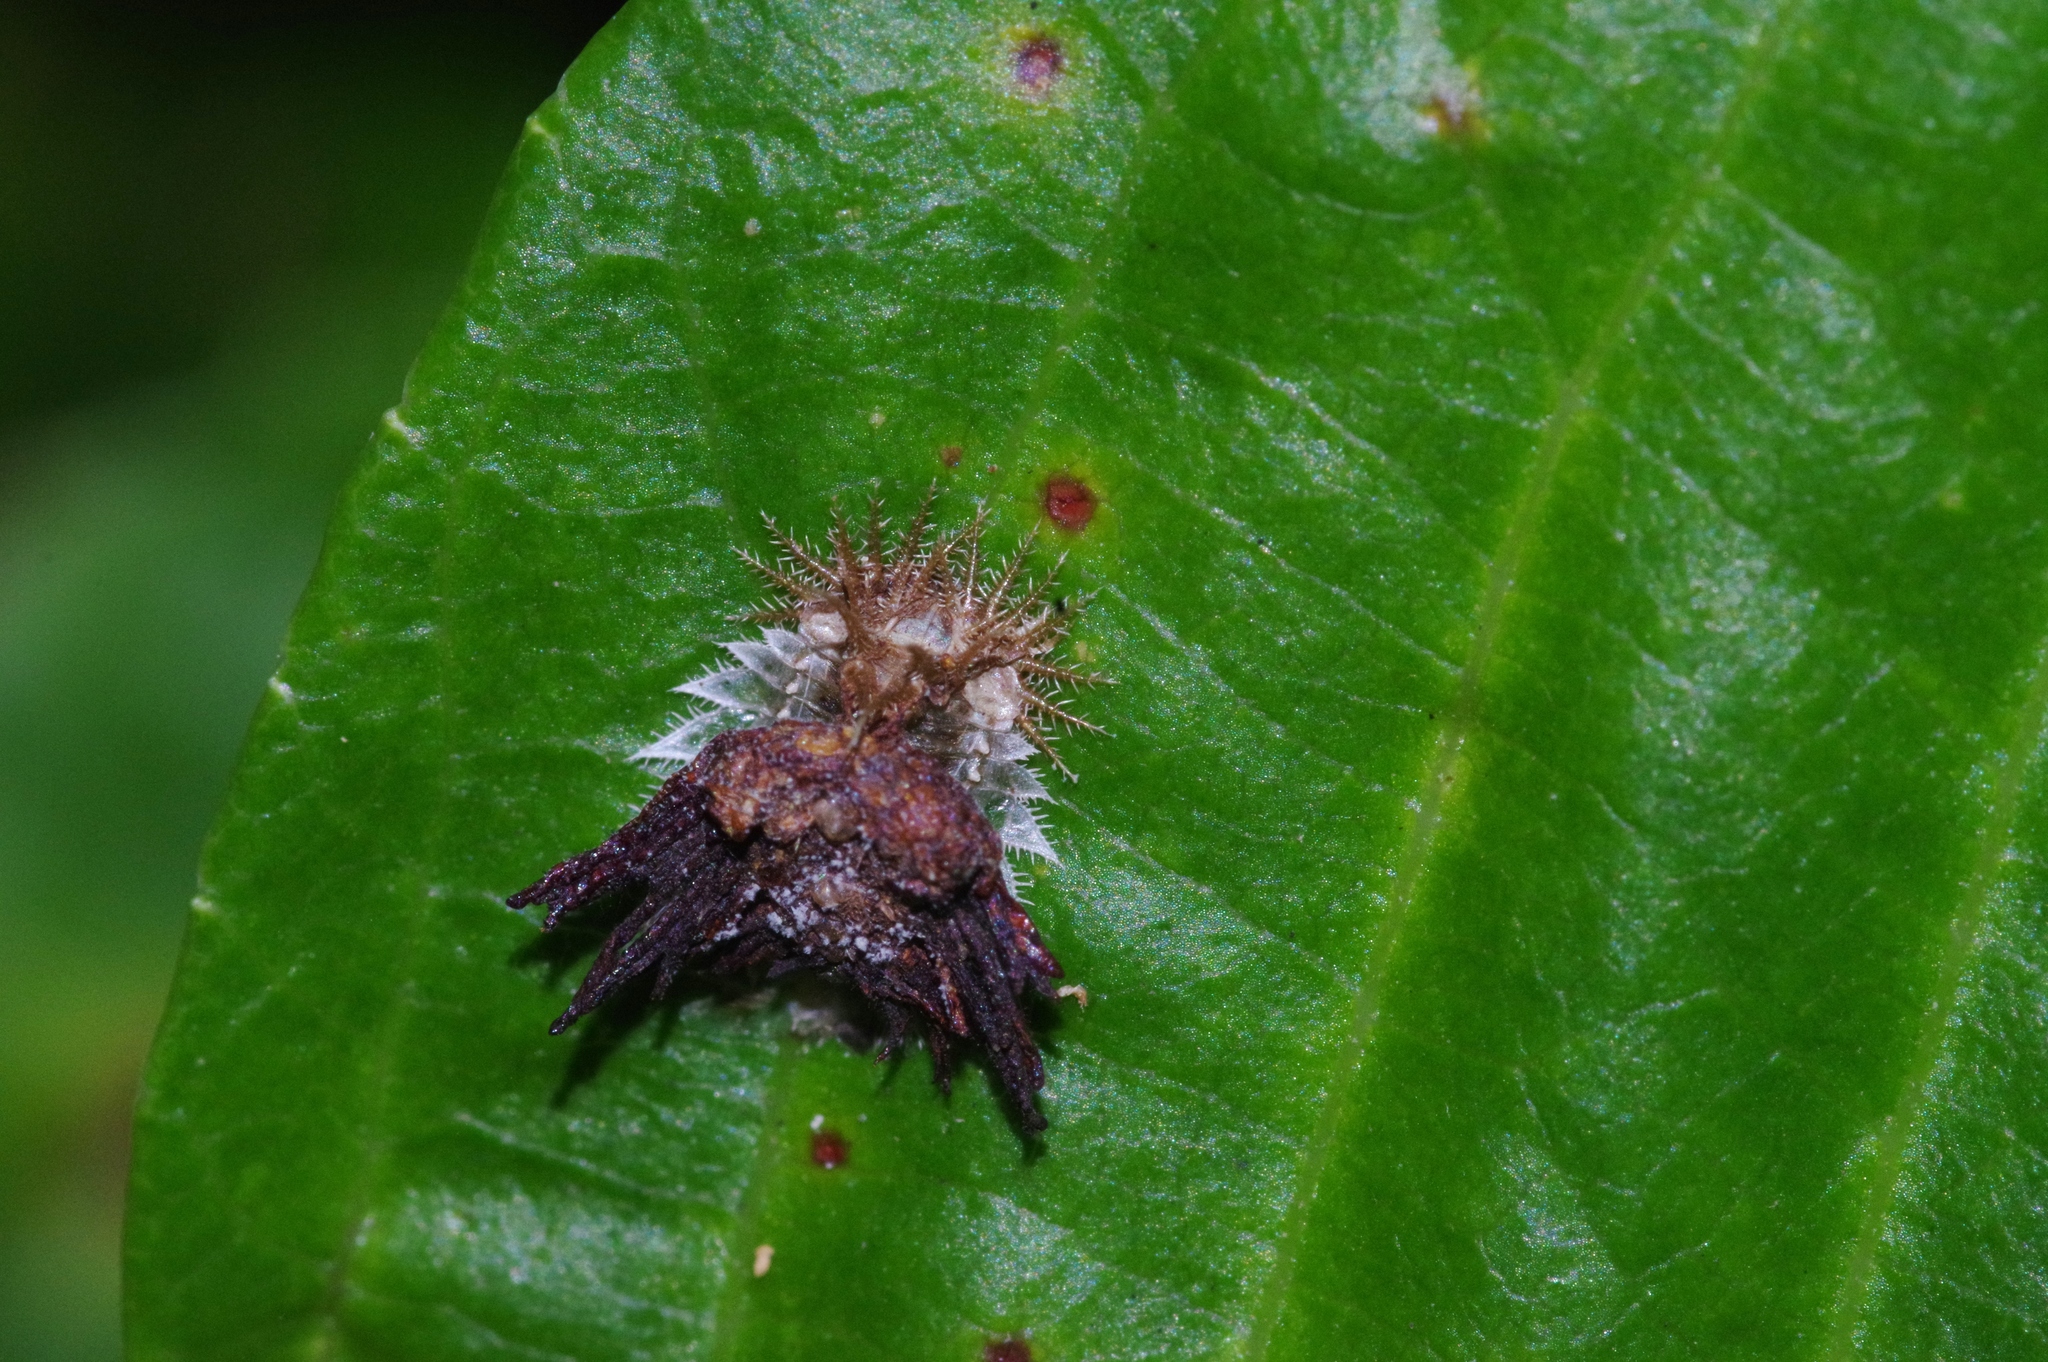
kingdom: Animalia
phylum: Arthropoda
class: Insecta
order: Coleoptera
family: Chrysomelidae
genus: Thlaspida
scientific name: Thlaspida biramosa
